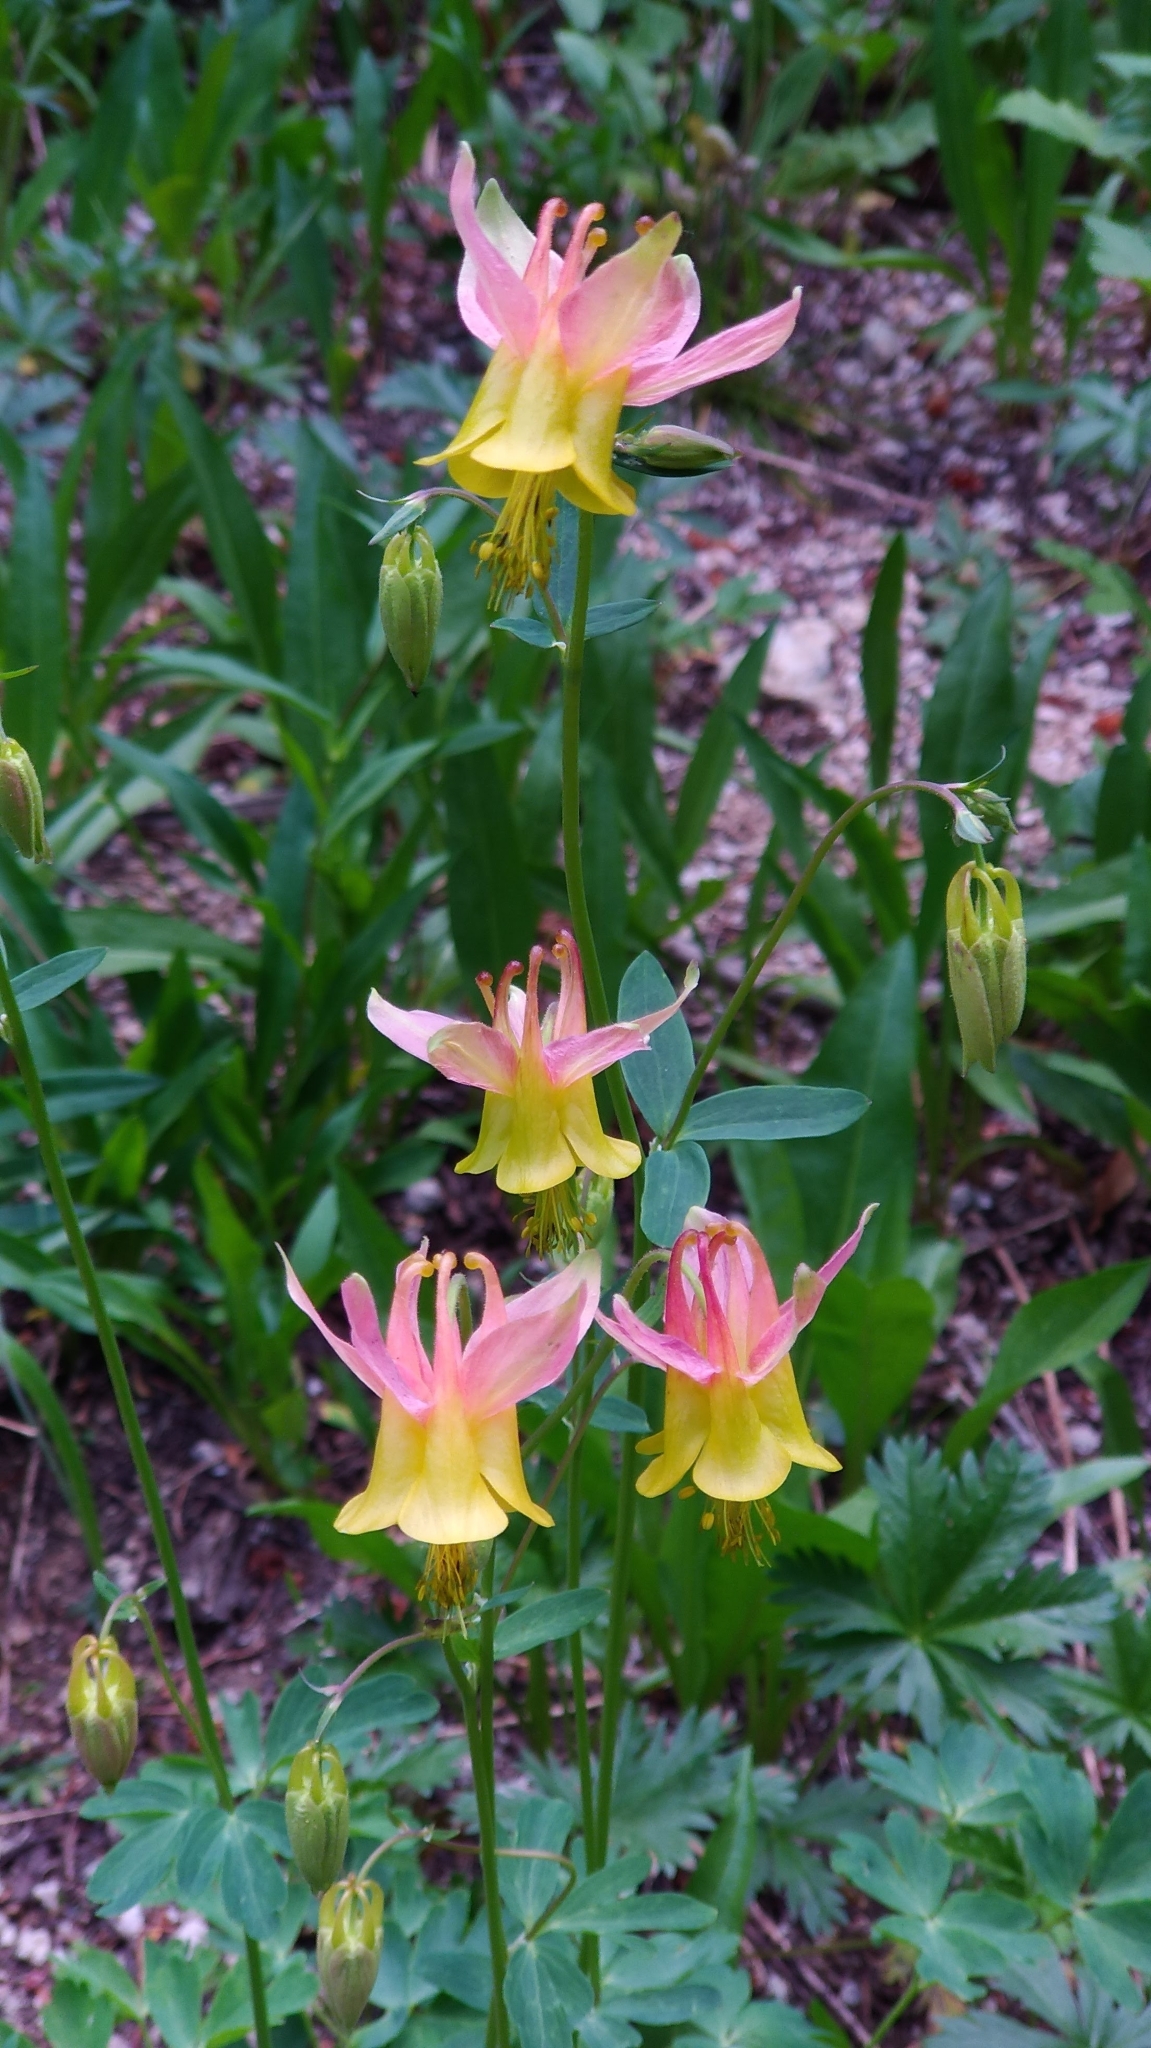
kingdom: Plantae
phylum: Tracheophyta
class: Magnoliopsida
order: Ranunculales
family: Ranunculaceae
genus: Aquilegia
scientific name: Aquilegia formosa
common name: Sitka columbine
